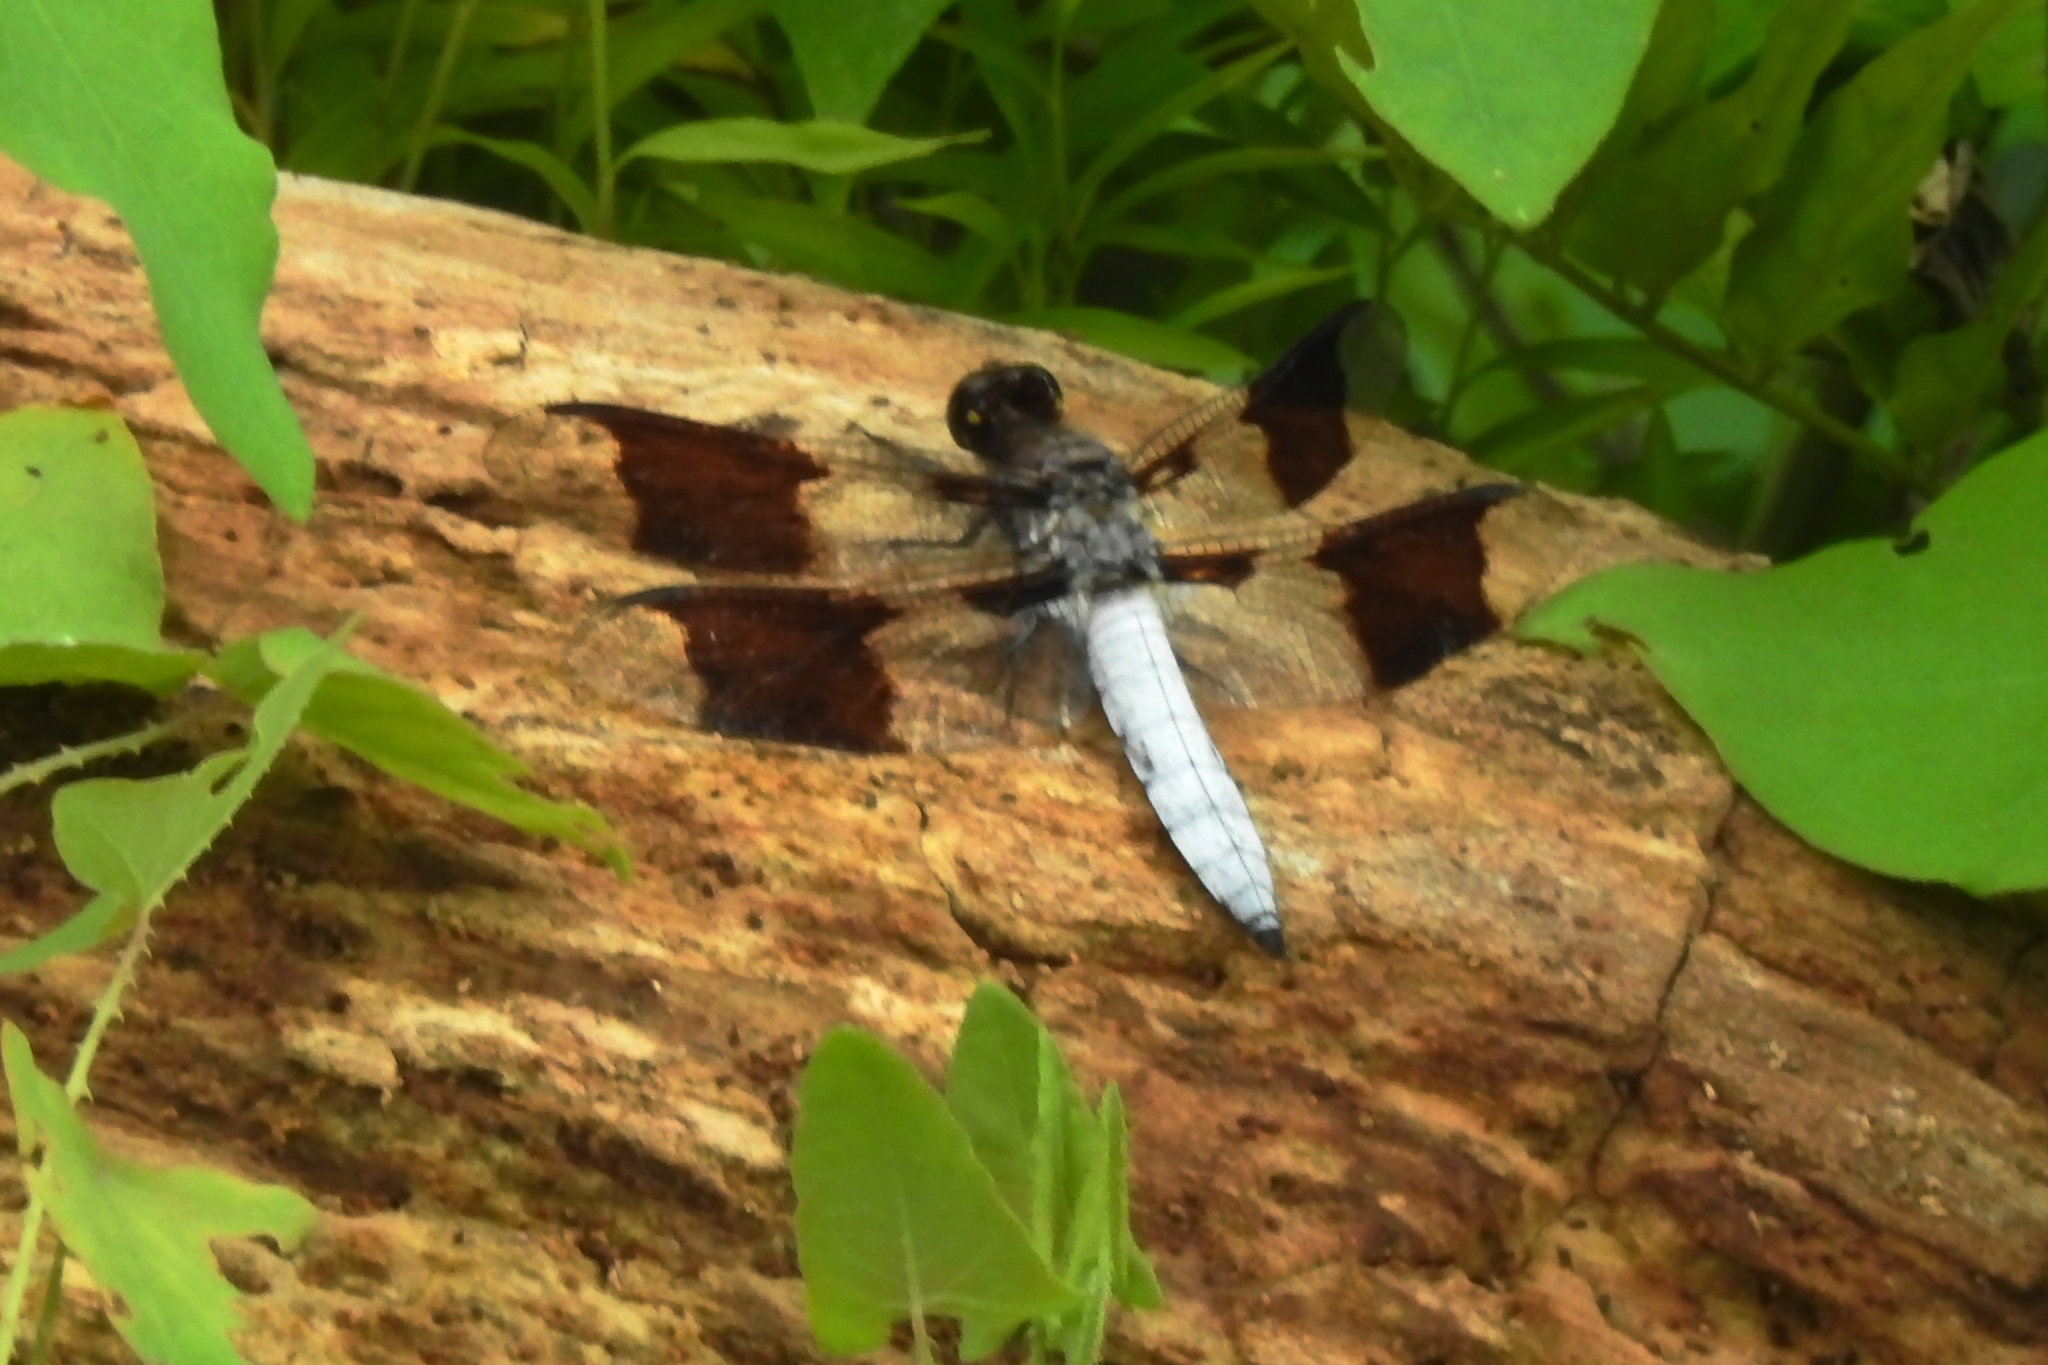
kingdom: Animalia
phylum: Arthropoda
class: Insecta
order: Odonata
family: Libellulidae
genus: Plathemis
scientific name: Plathemis lydia
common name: Common whitetail
